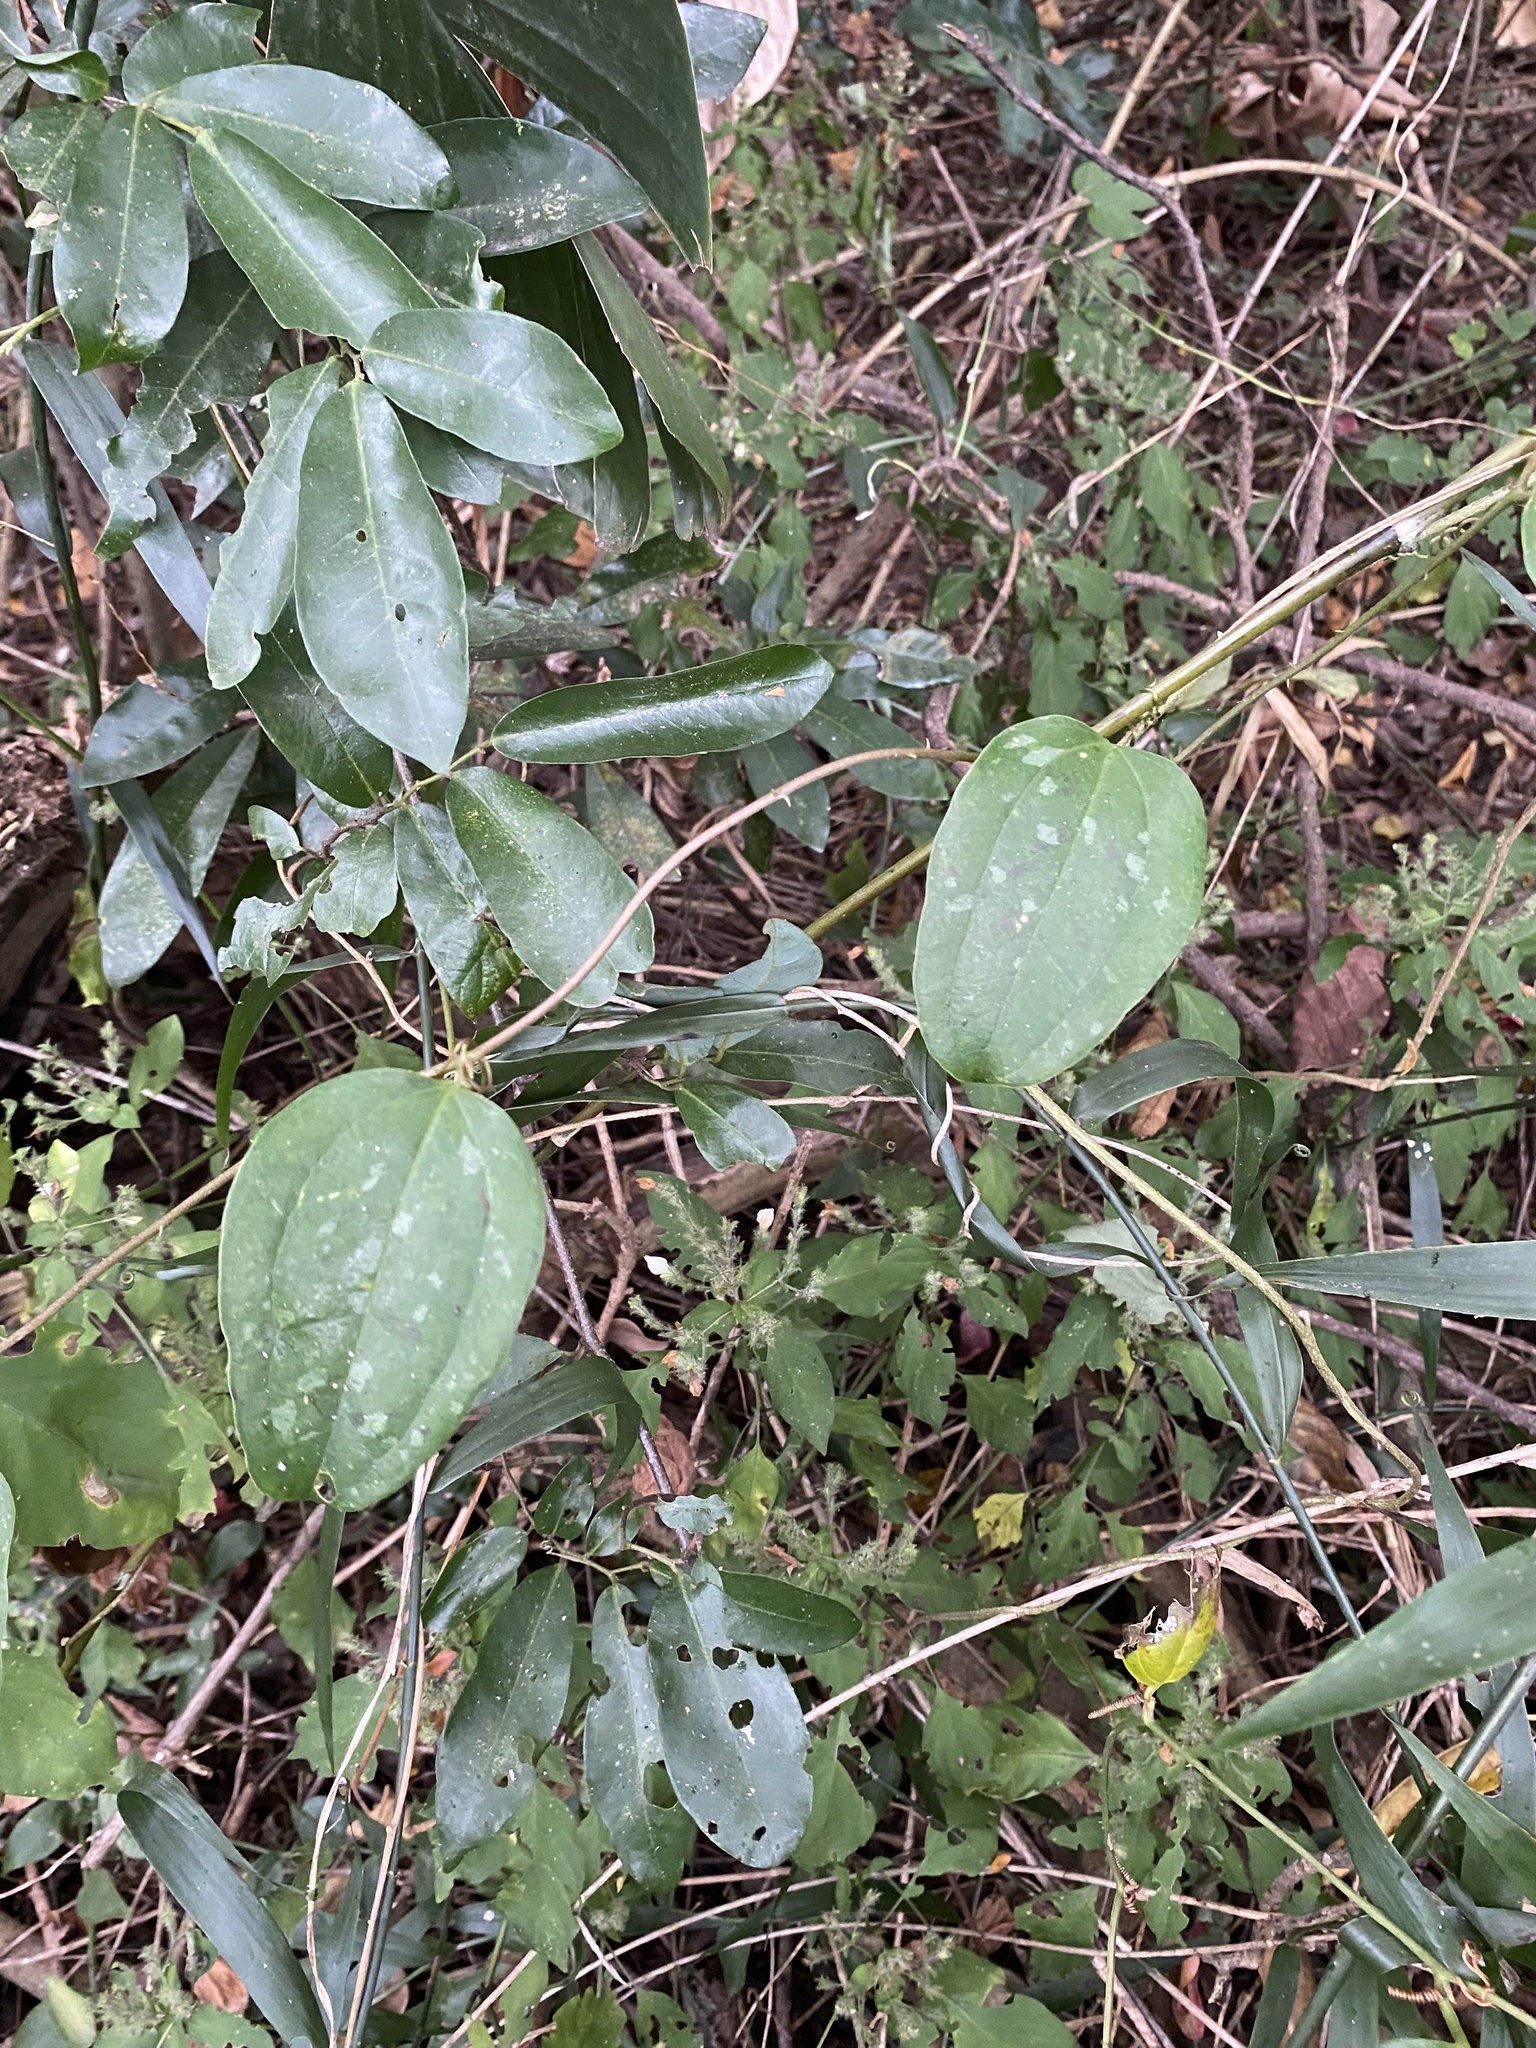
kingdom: Plantae
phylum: Tracheophyta
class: Liliopsida
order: Liliales
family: Smilacaceae
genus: Smilax
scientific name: Smilax anceps
